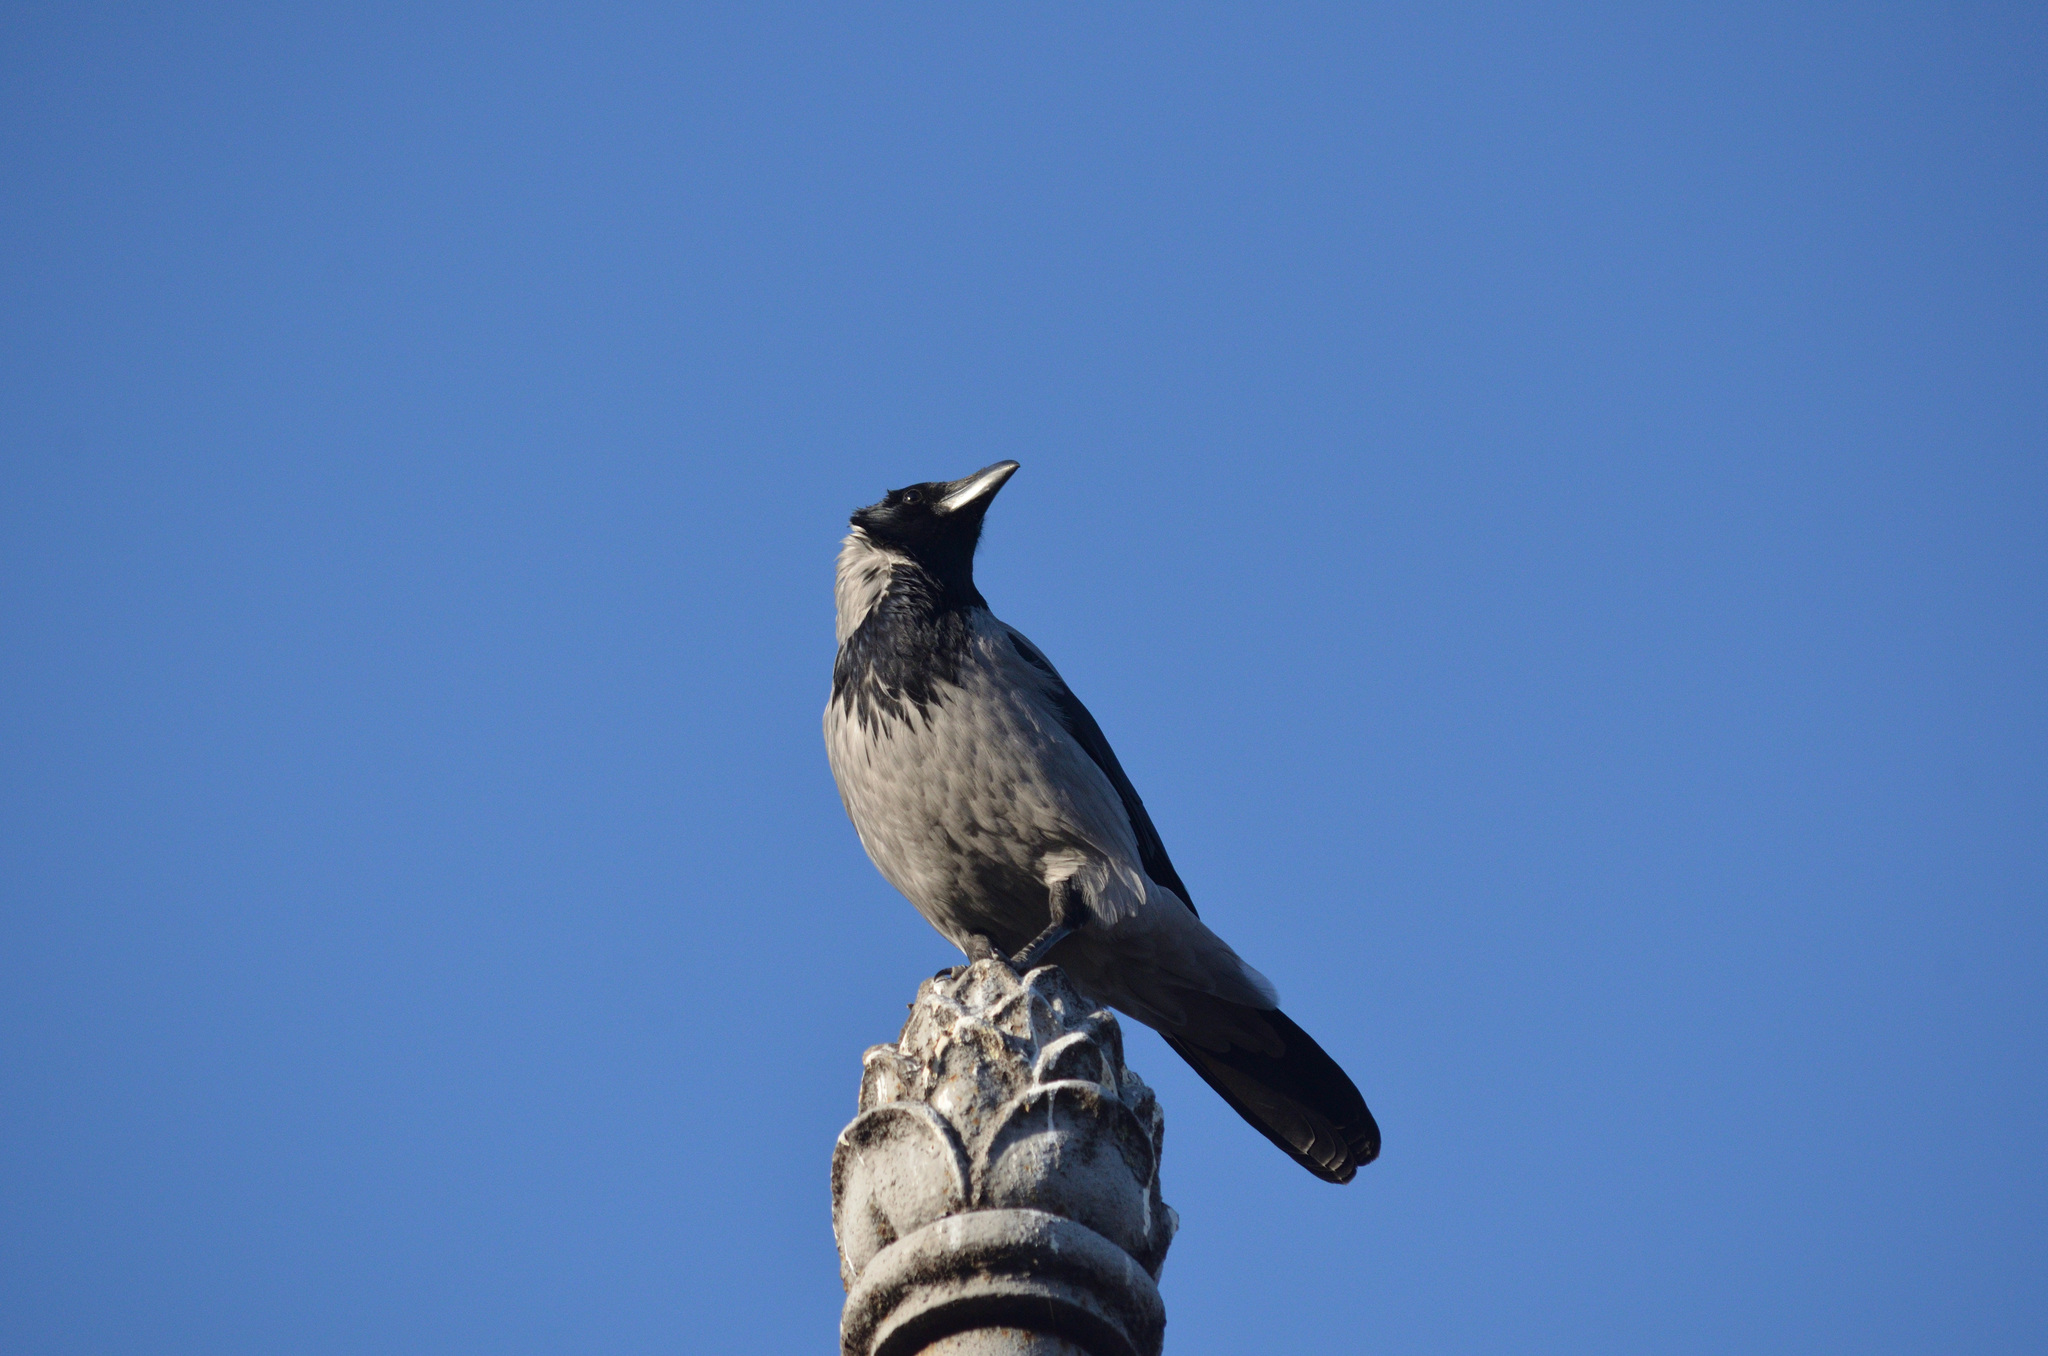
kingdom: Animalia
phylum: Chordata
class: Aves
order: Passeriformes
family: Corvidae
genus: Corvus
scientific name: Corvus cornix
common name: Hooded crow
